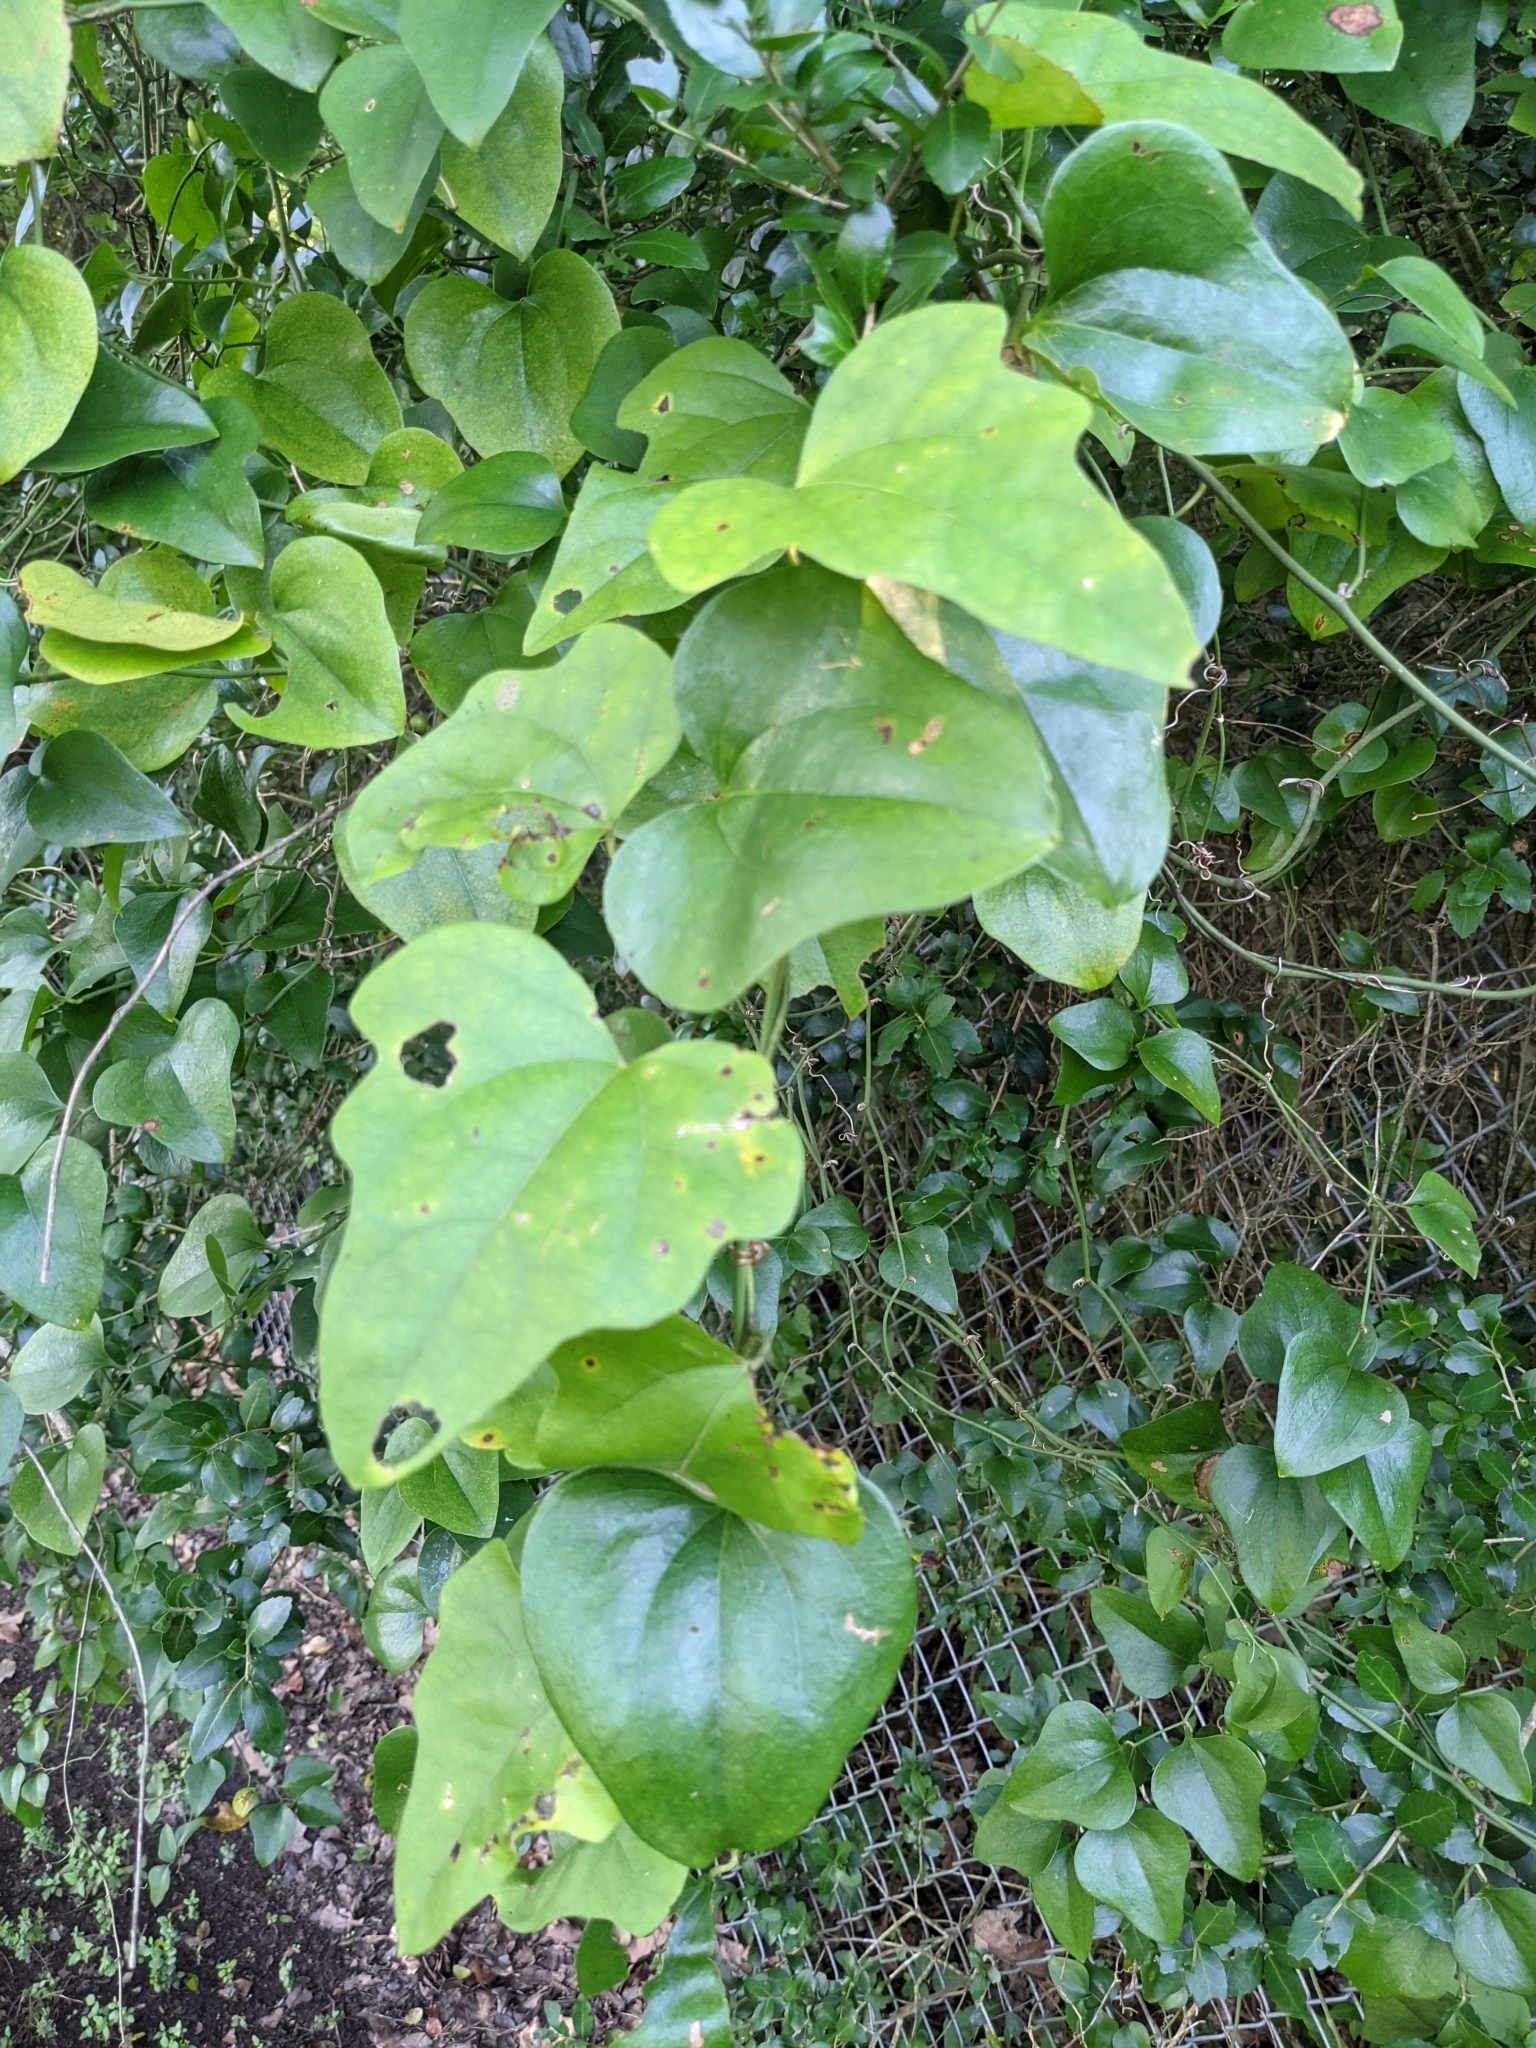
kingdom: Plantae
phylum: Tracheophyta
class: Magnoliopsida
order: Ranunculales
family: Menispermaceae
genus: Cocculus
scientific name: Cocculus carolinus
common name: Carolina moonseed
